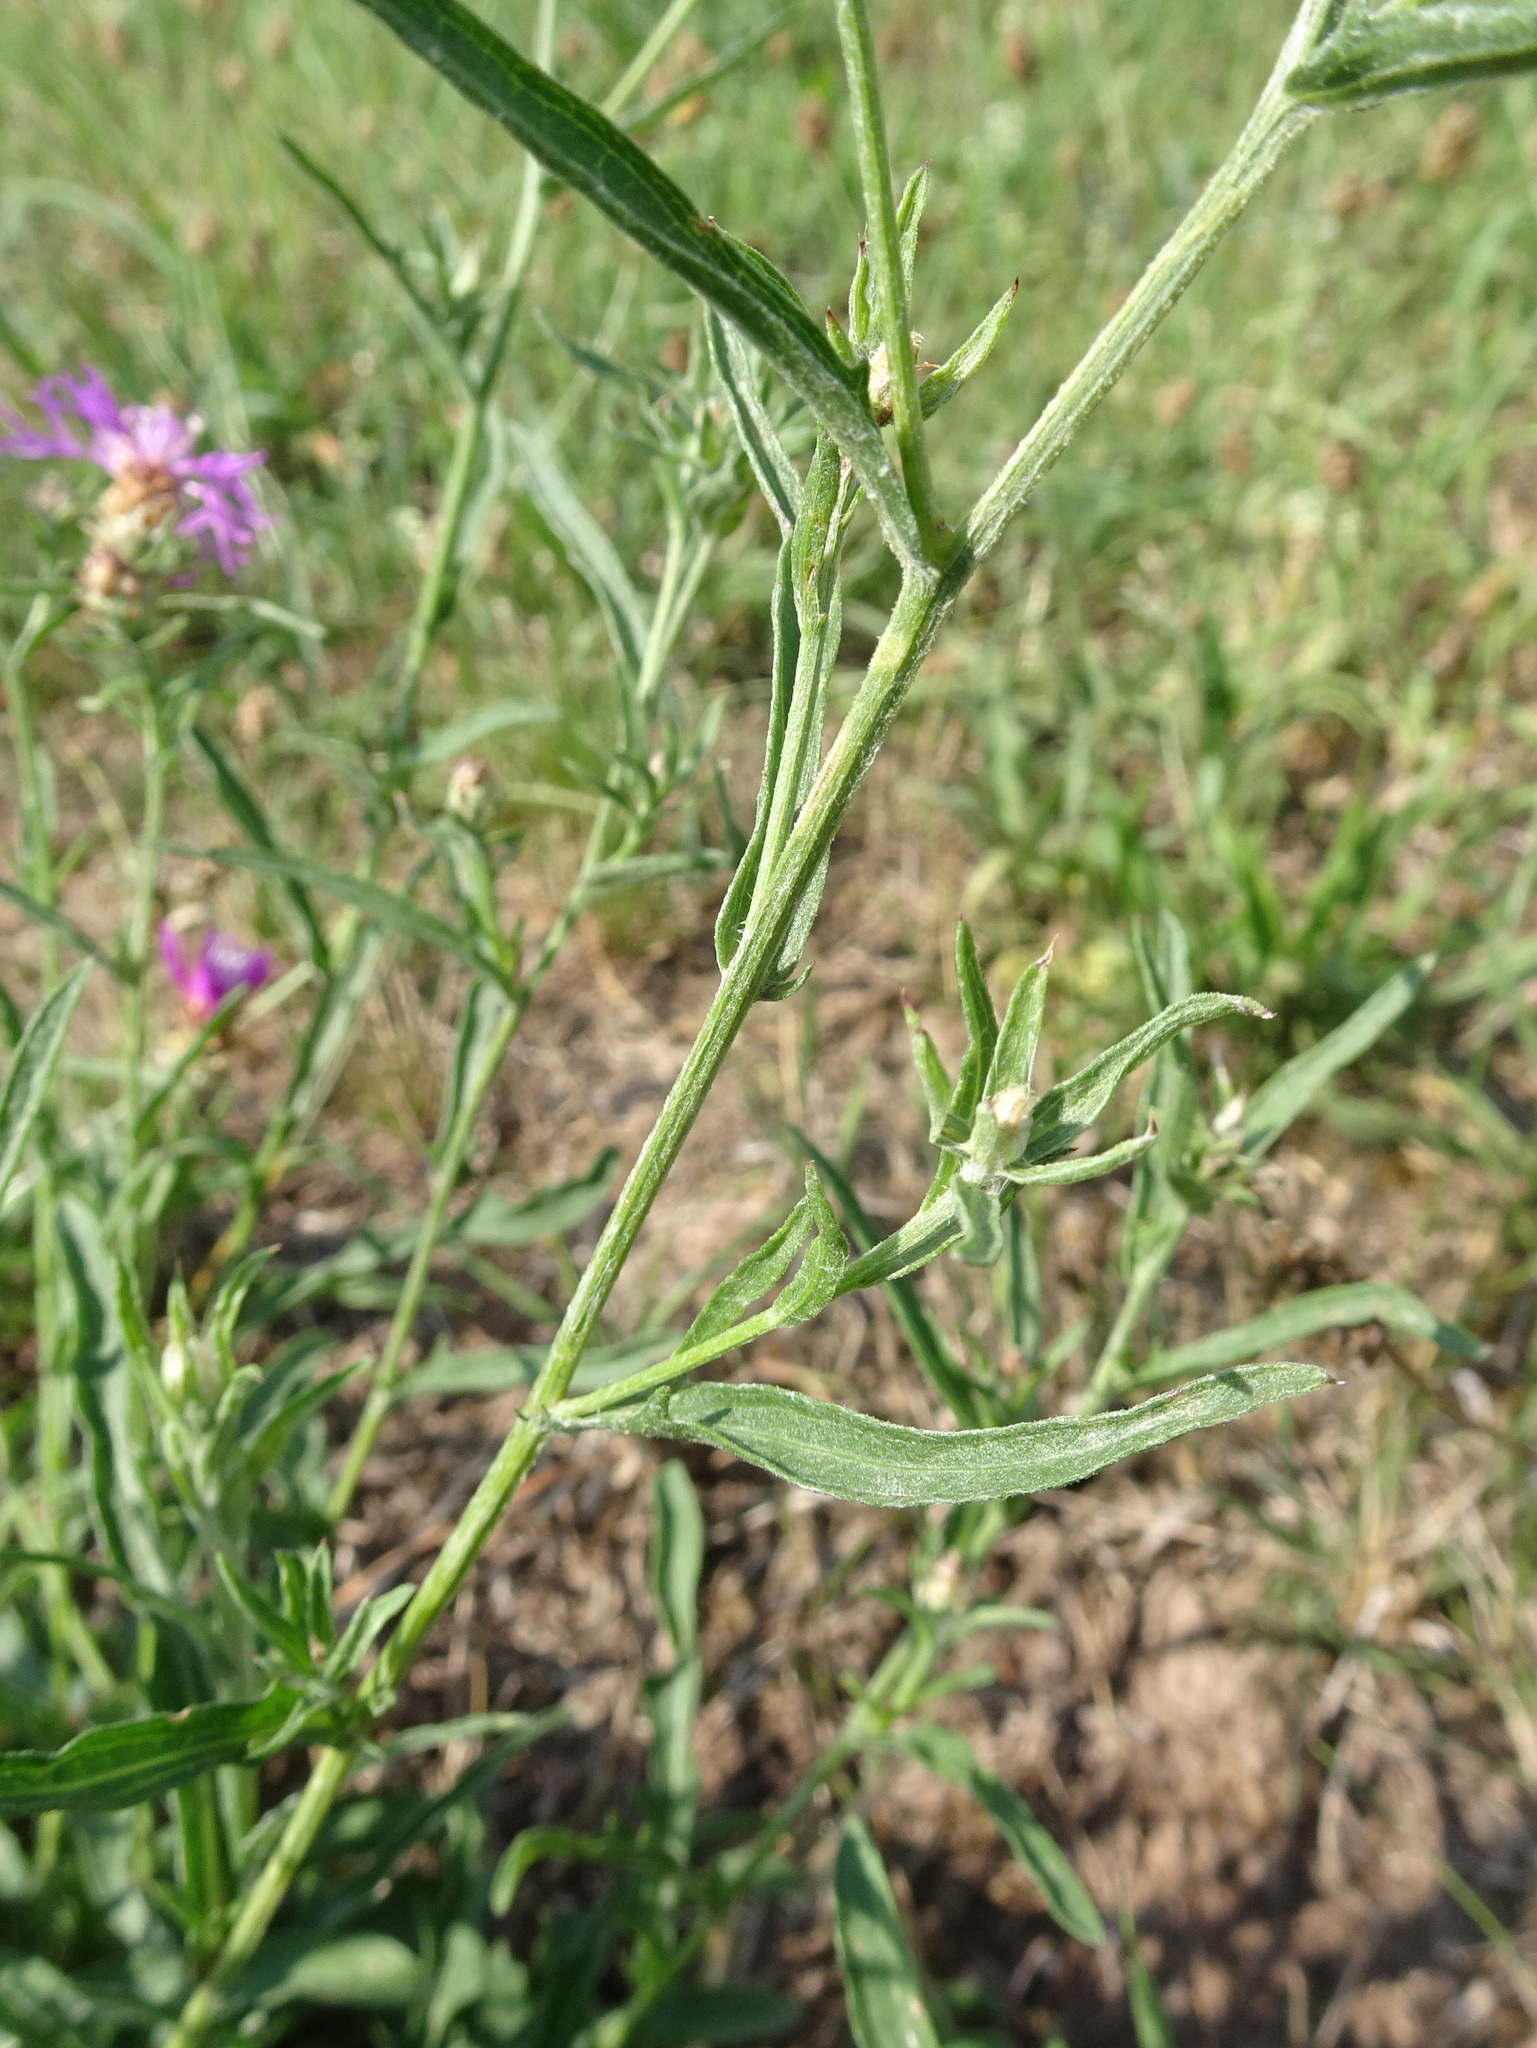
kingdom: Plantae
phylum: Tracheophyta
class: Magnoliopsida
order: Asterales
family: Asteraceae
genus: Centaurea
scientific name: Centaurea jacea
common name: Brown knapweed
